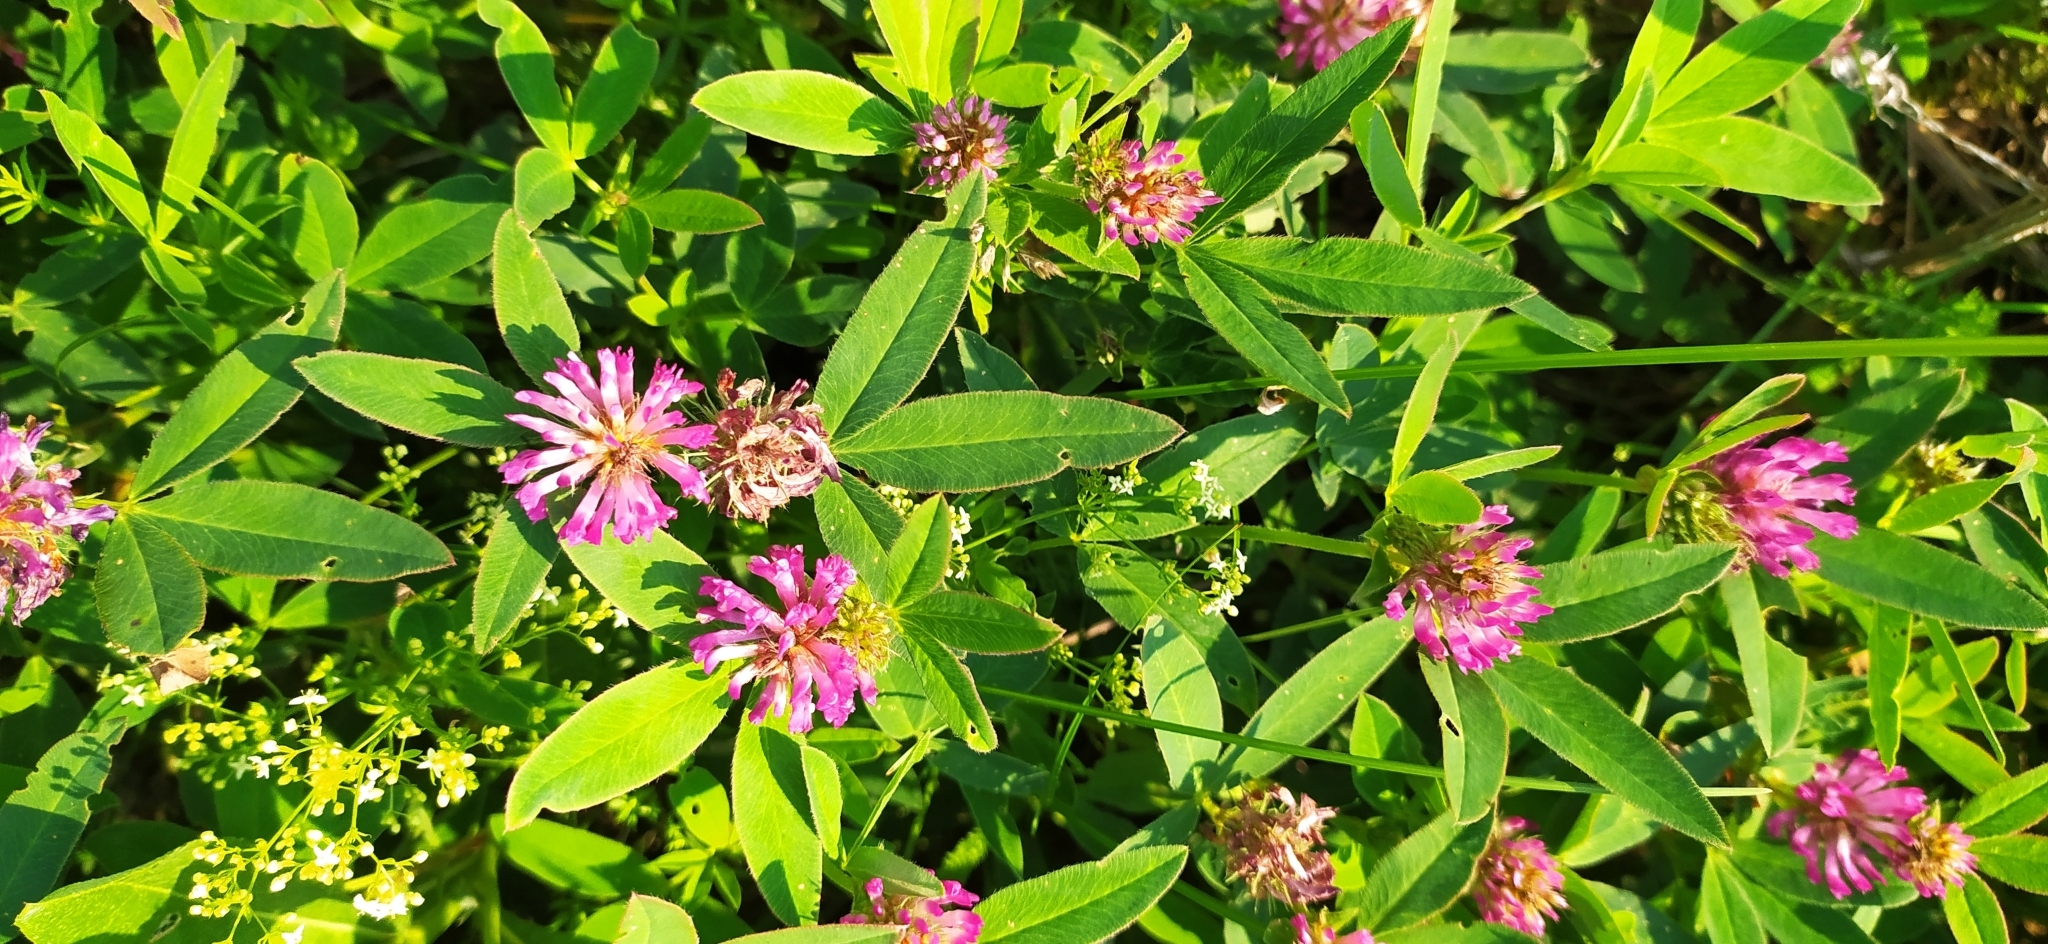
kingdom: Plantae
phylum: Tracheophyta
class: Magnoliopsida
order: Fabales
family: Fabaceae
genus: Trifolium
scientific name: Trifolium medium
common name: Zigzag clover
